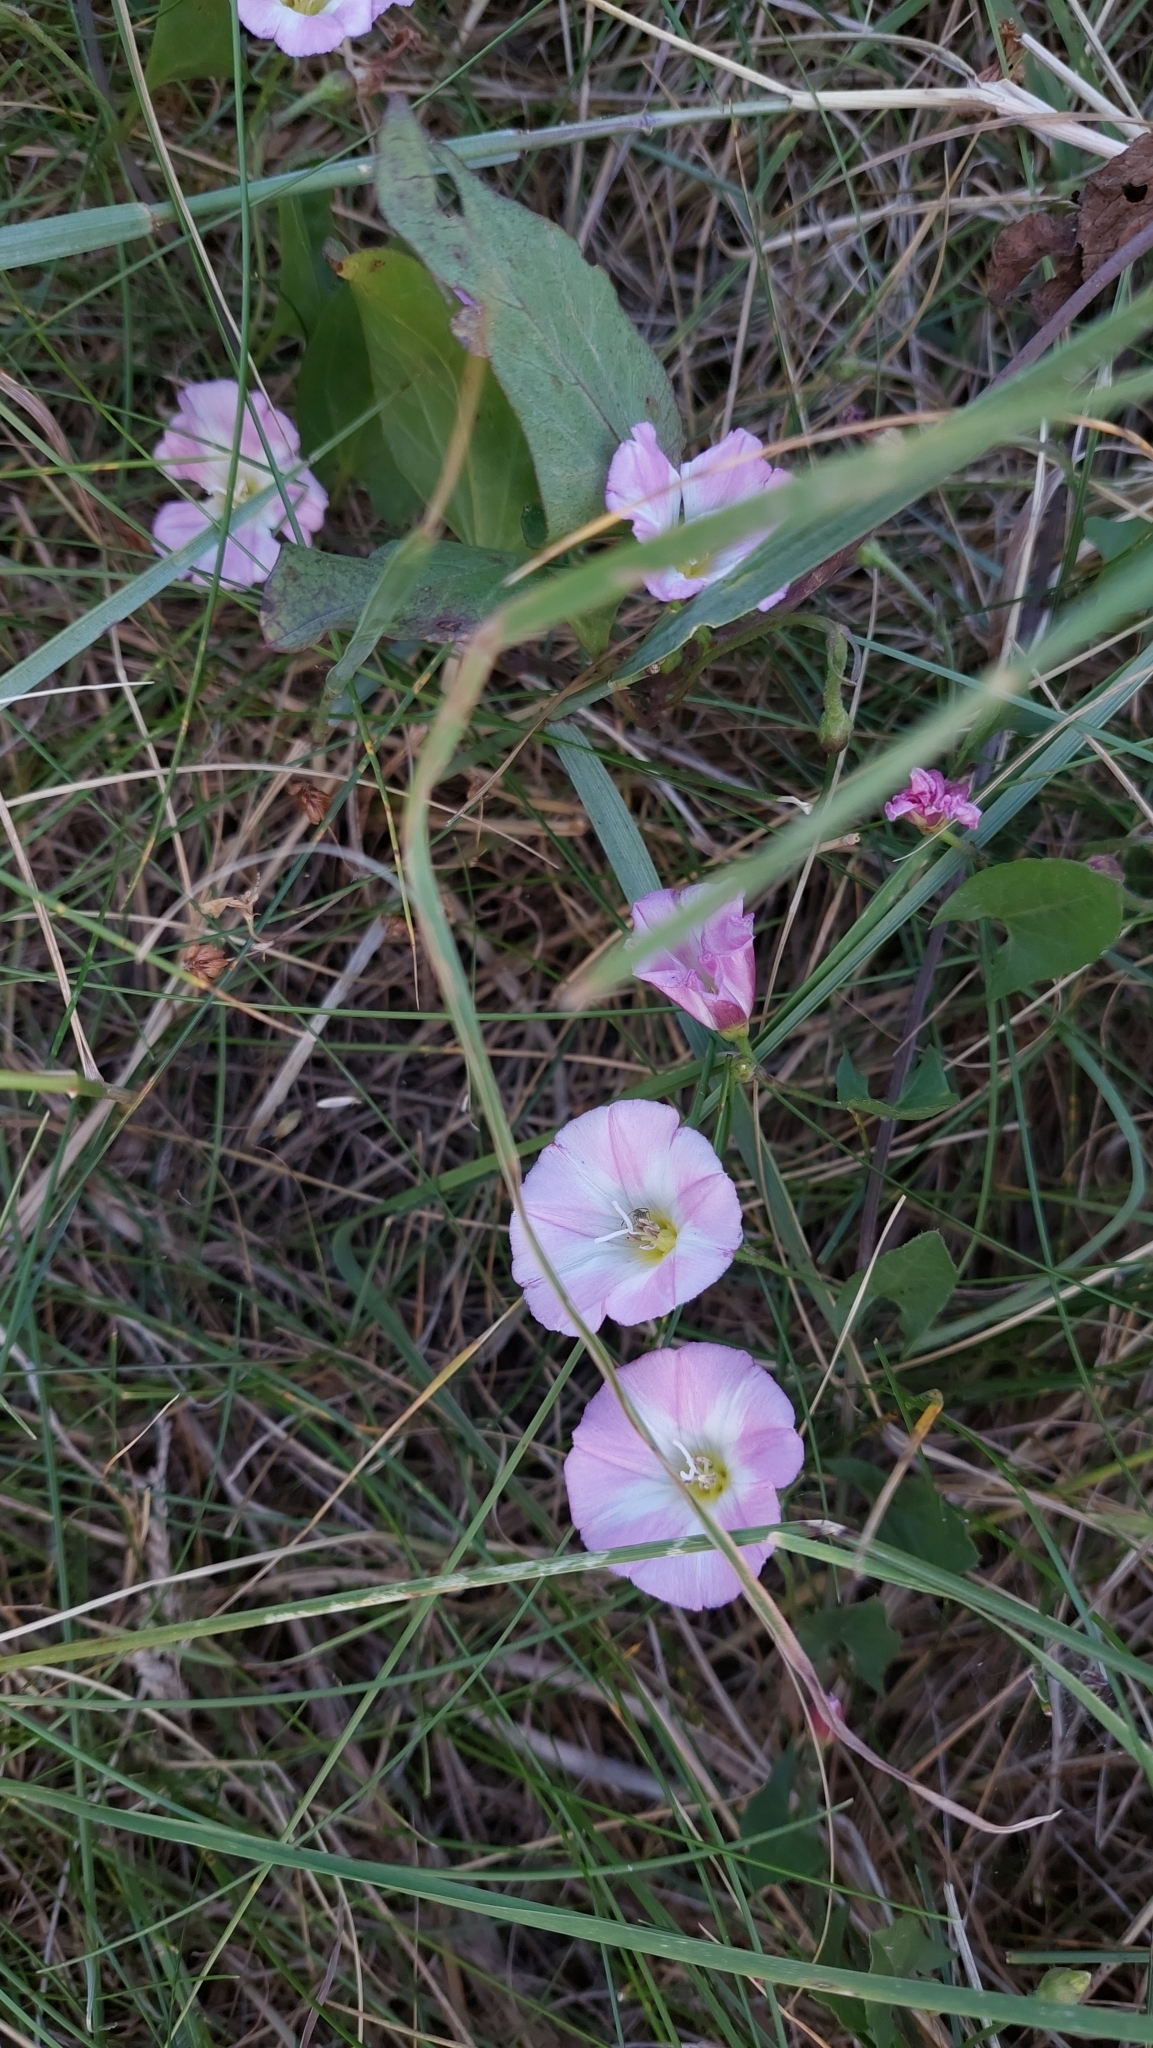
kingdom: Plantae
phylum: Tracheophyta
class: Magnoliopsida
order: Solanales
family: Convolvulaceae
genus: Convolvulus
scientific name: Convolvulus arvensis
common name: Field bindweed
